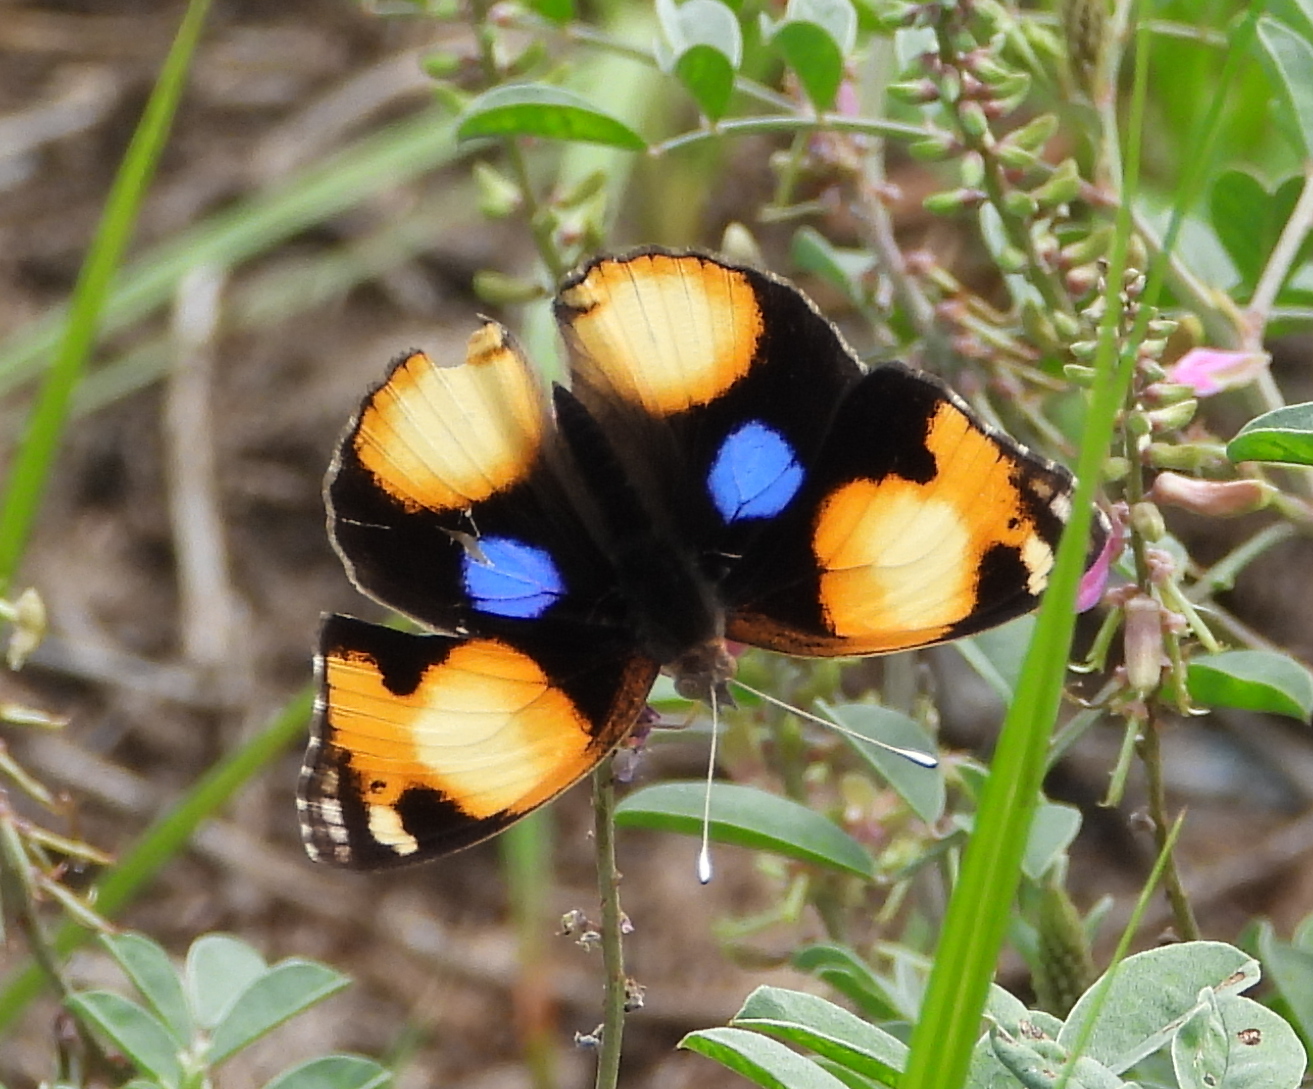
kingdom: Animalia
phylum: Arthropoda
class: Insecta
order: Lepidoptera
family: Nymphalidae
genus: Junonia
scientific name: Junonia hierta
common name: Yellow pansy
